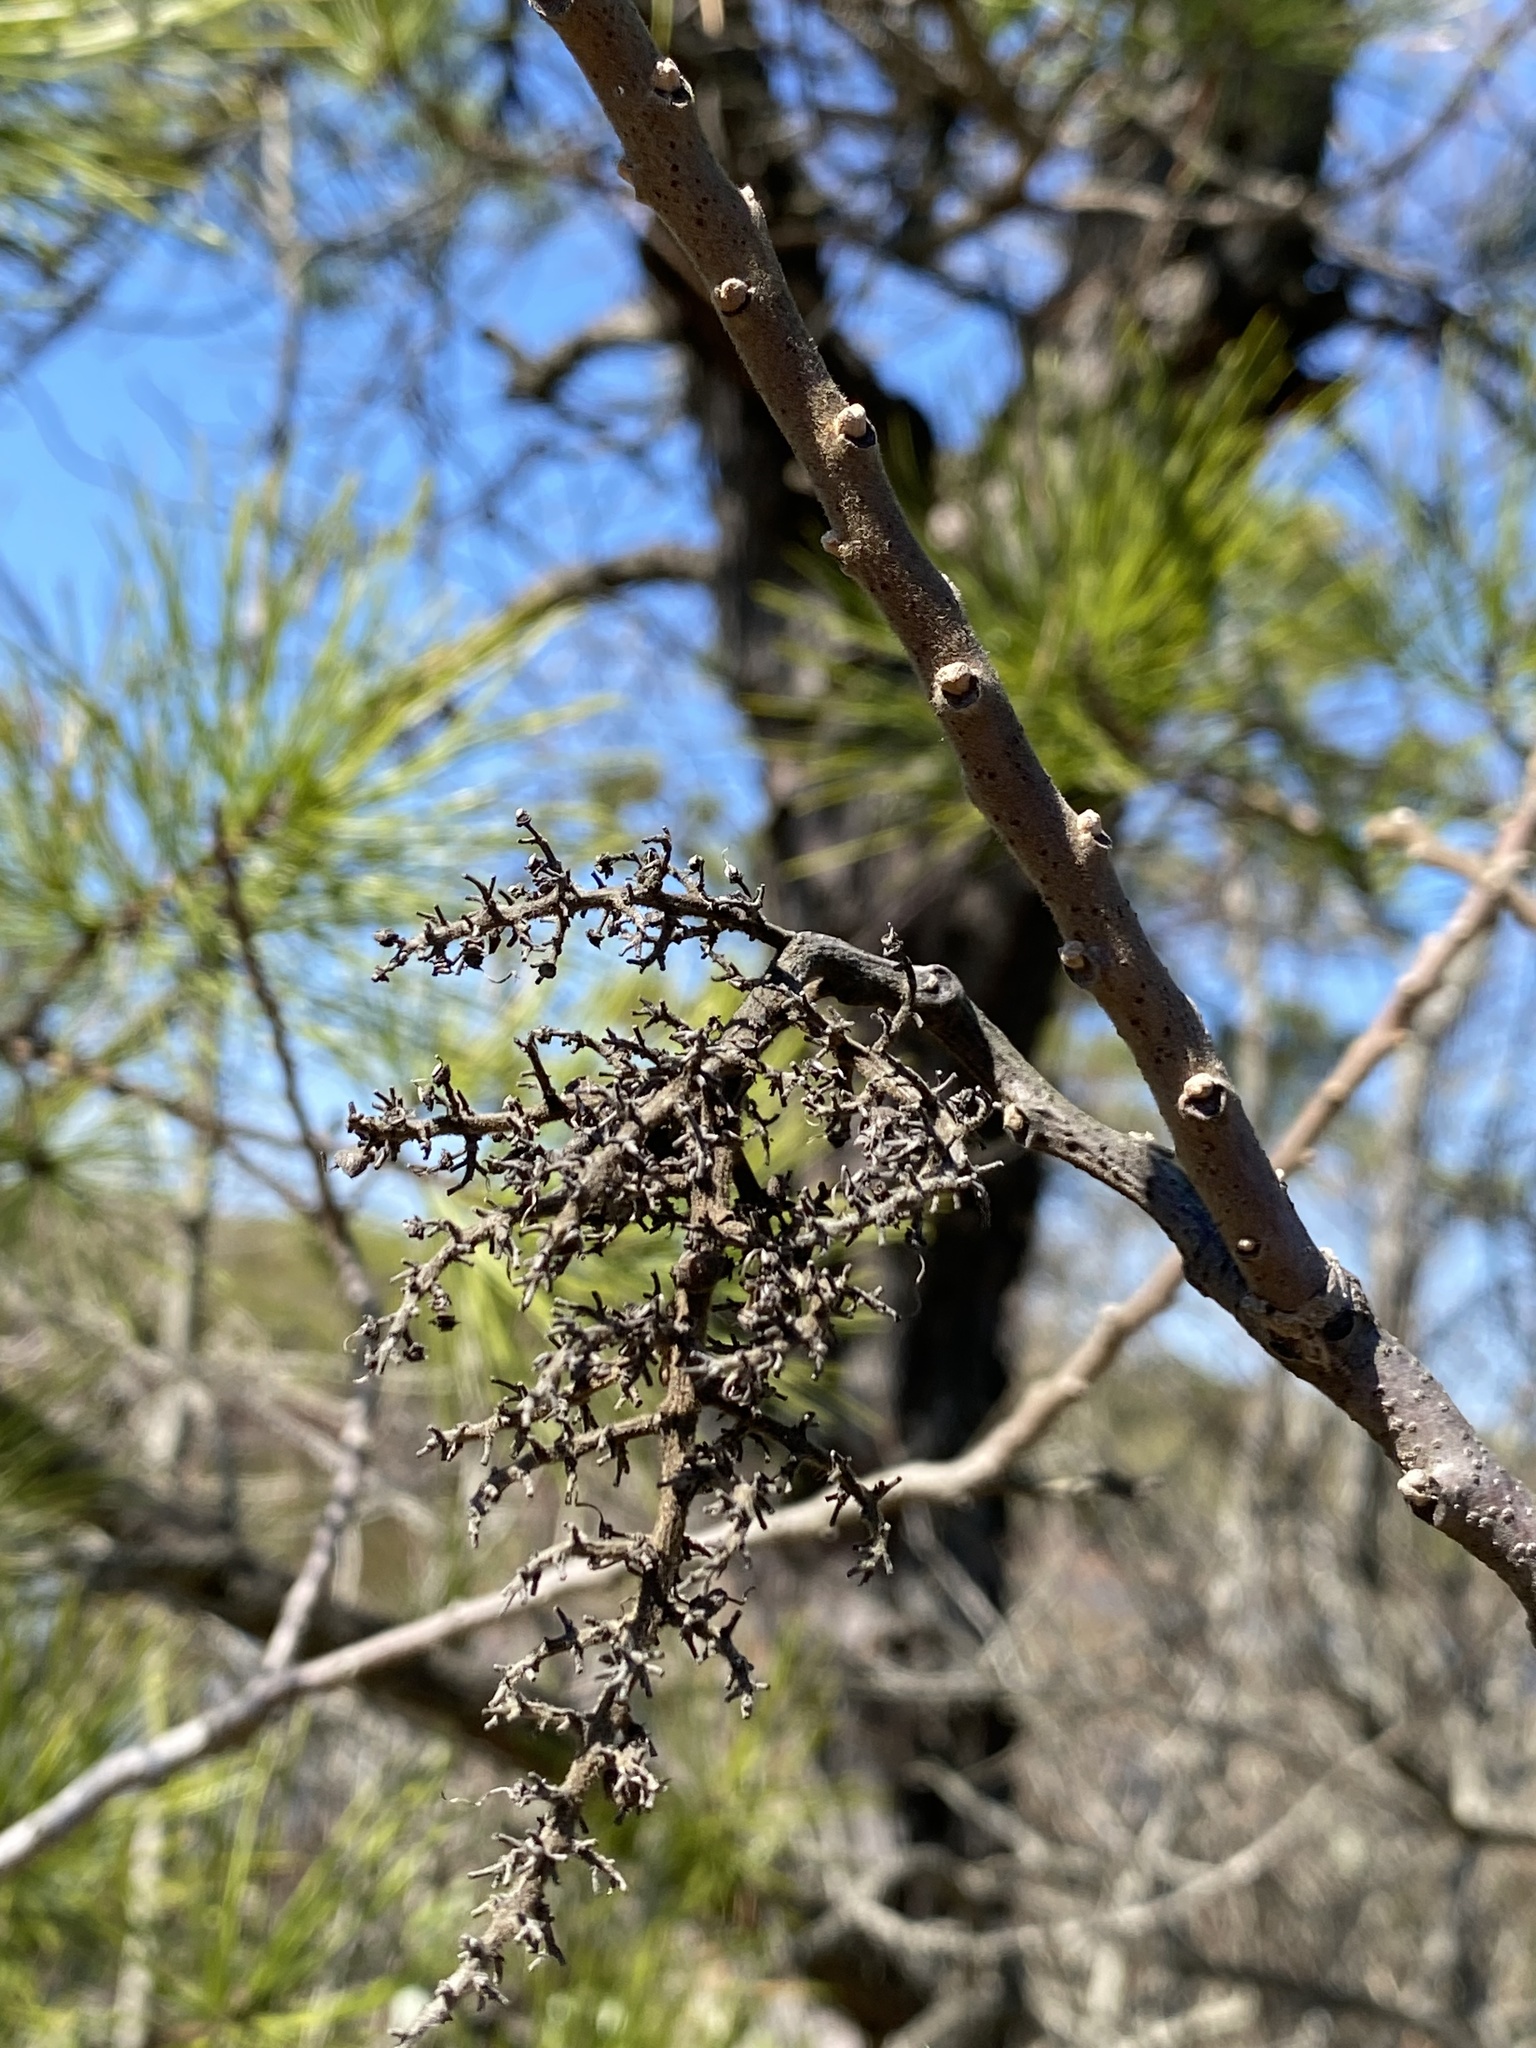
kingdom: Plantae
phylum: Tracheophyta
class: Magnoliopsida
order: Sapindales
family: Anacardiaceae
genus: Rhus
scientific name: Rhus copallina
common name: Shining sumac
